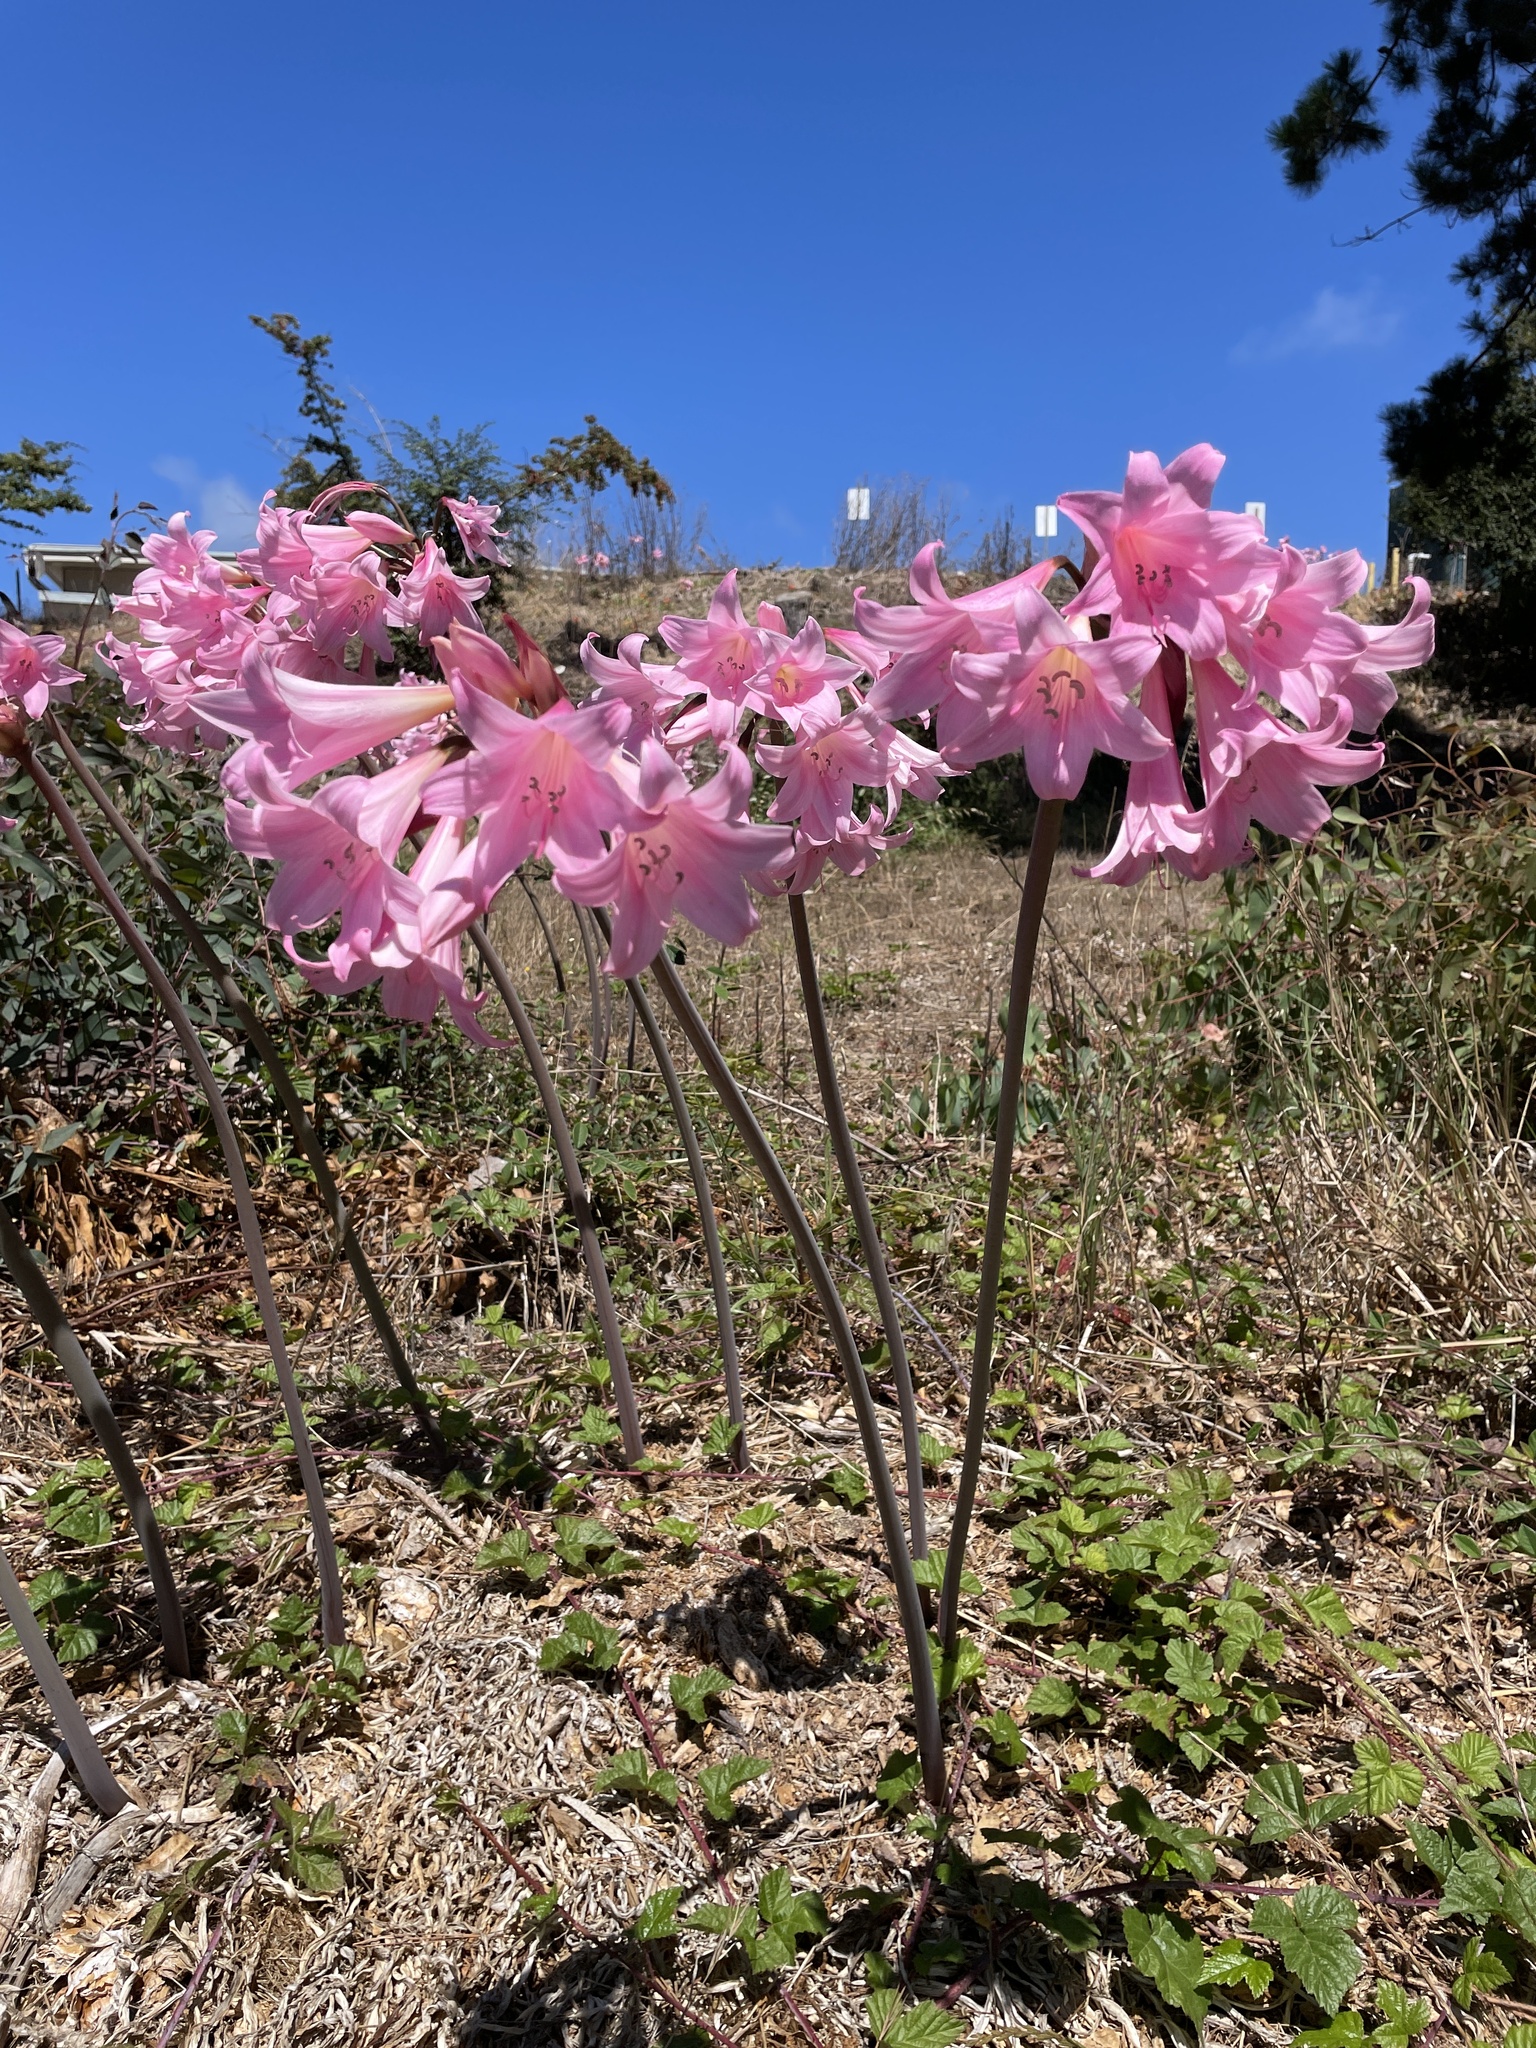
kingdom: Plantae
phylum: Tracheophyta
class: Liliopsida
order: Asparagales
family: Amaryllidaceae
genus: Amaryllis
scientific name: Amaryllis belladonna
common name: Jersey lily
